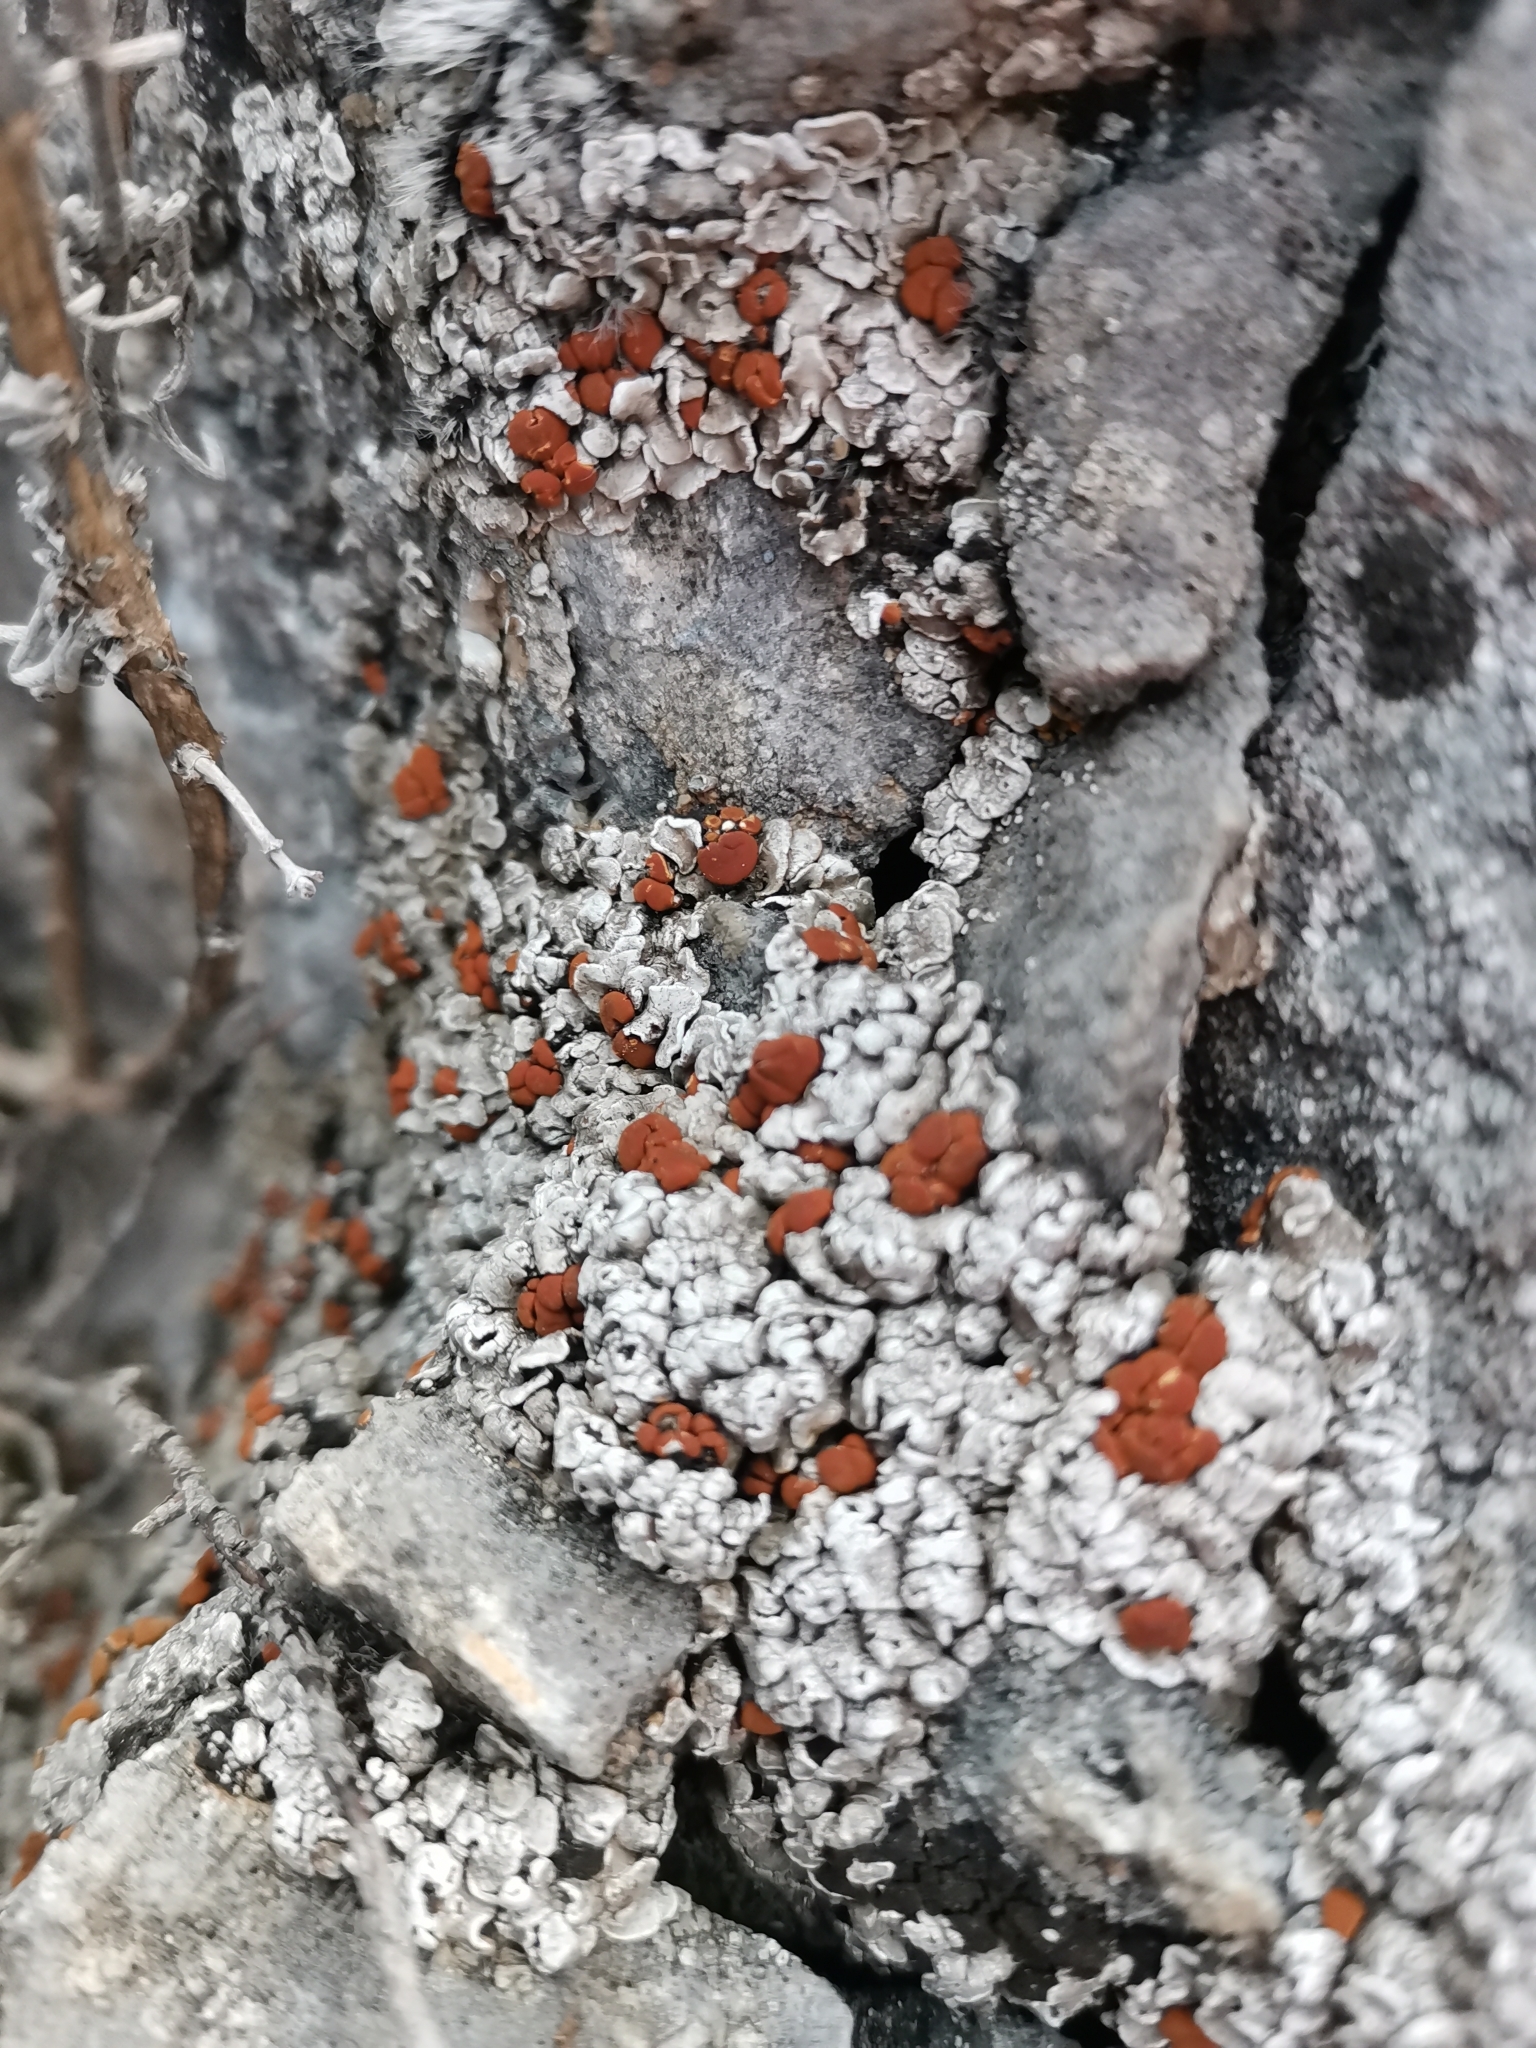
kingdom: Fungi
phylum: Ascomycota
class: Lecanoromycetes
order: Lecanorales
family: Psoraceae
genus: Psora
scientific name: Psora testacea
